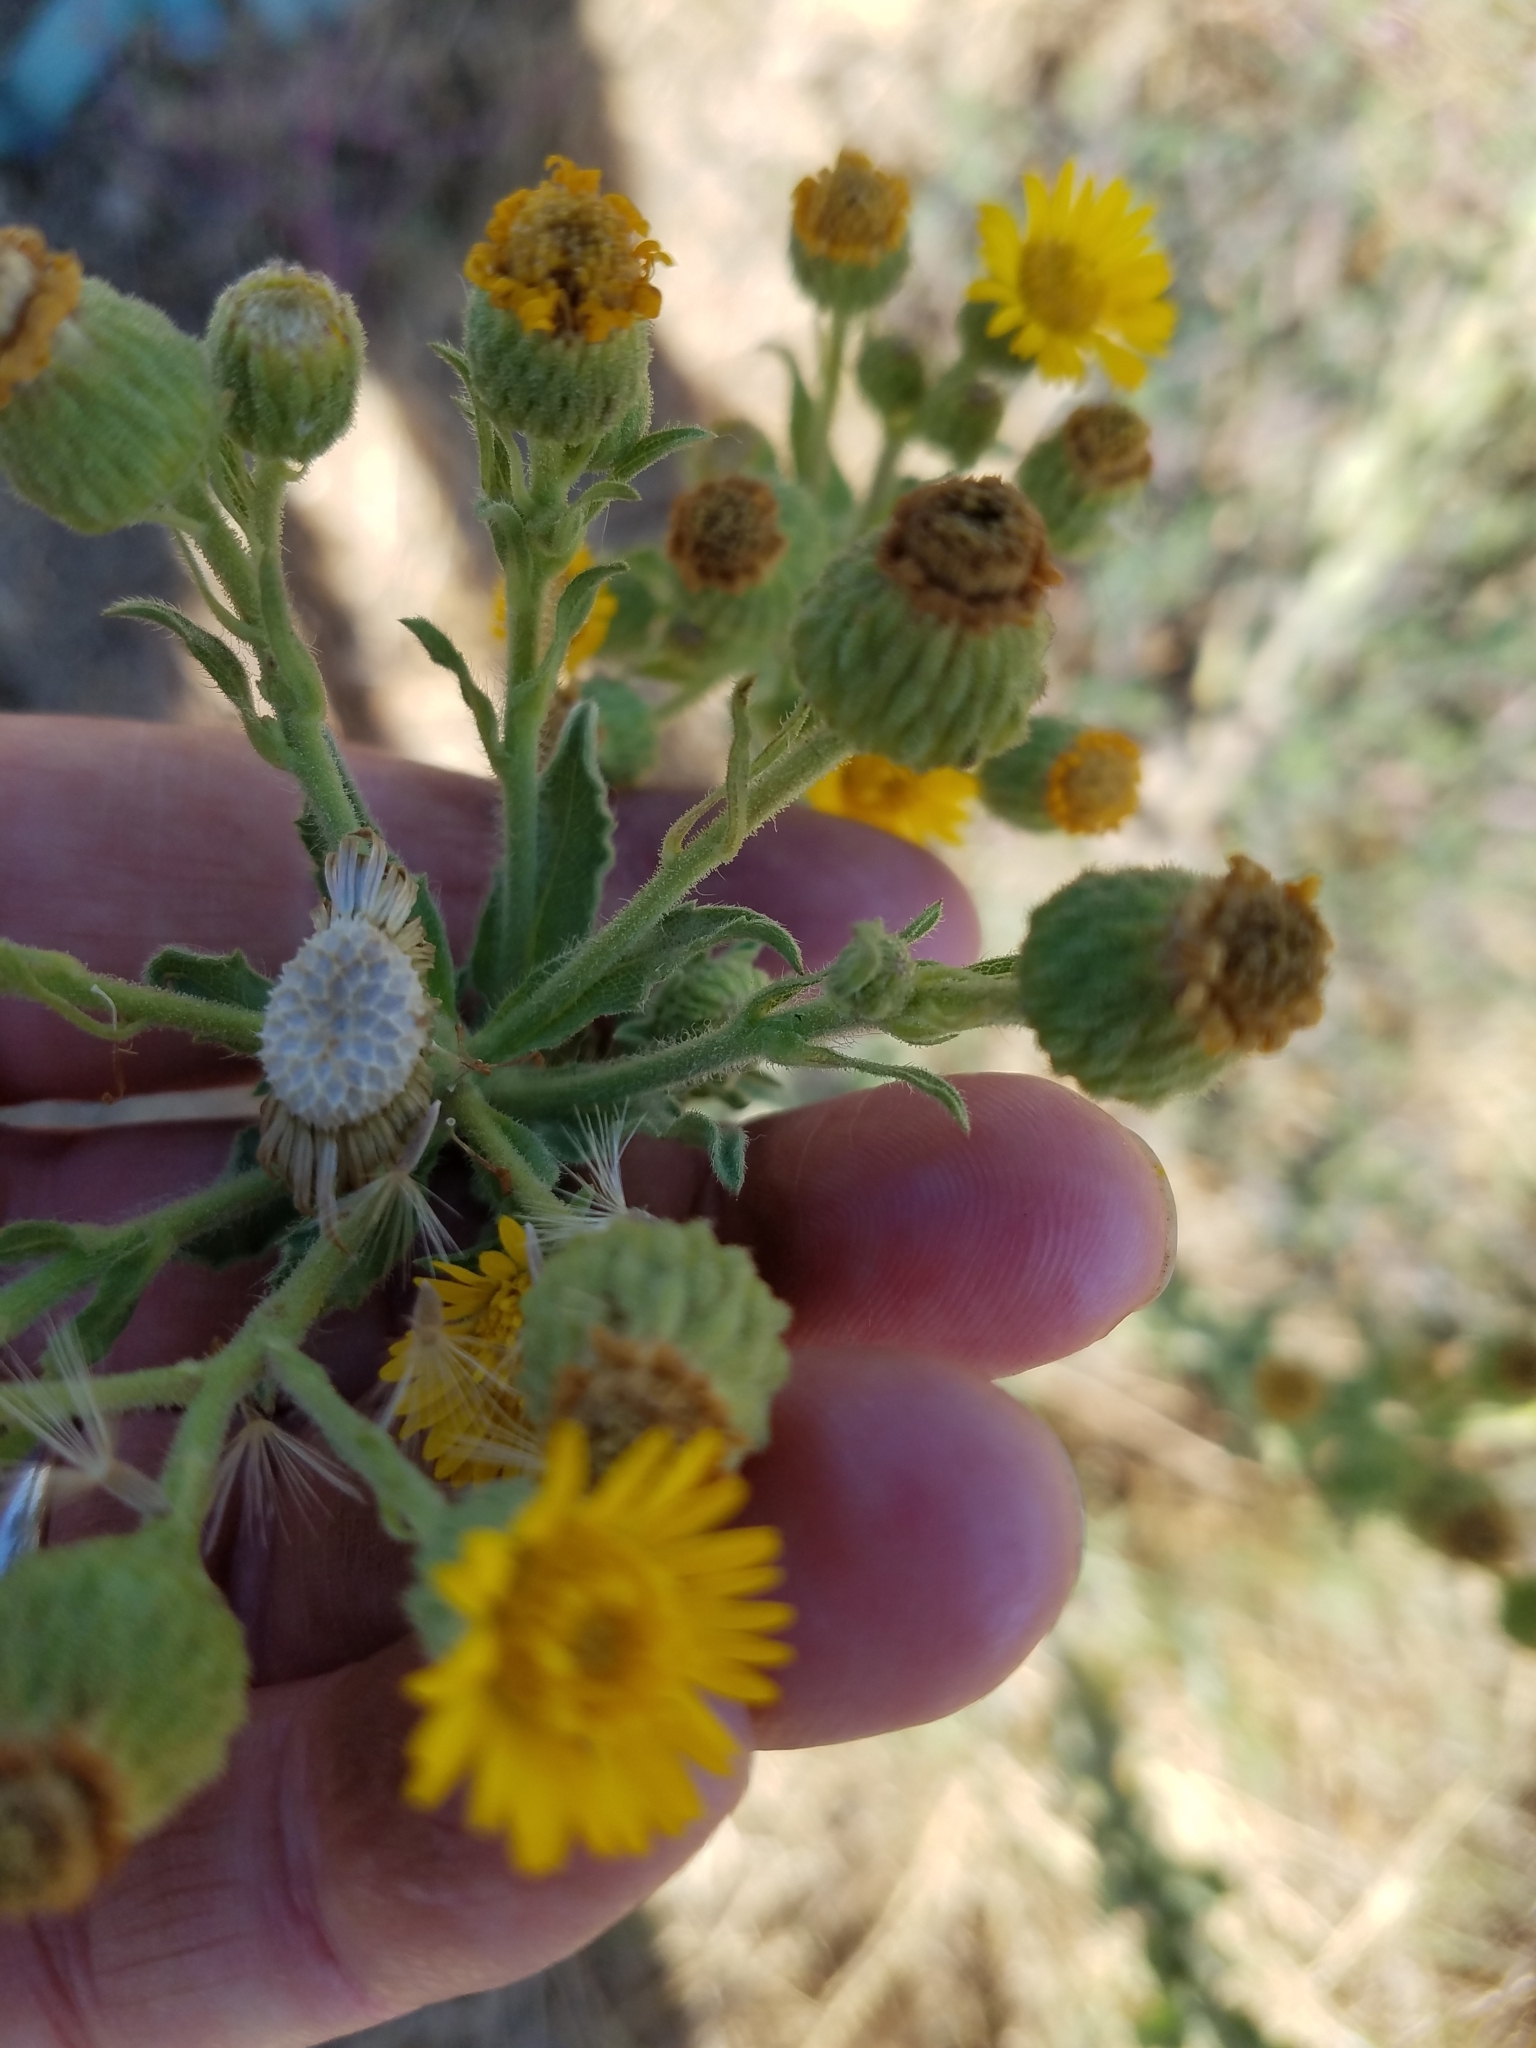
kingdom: Plantae
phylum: Tracheophyta
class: Magnoliopsida
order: Asterales
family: Asteraceae
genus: Heterotheca
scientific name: Heterotheca grandiflora
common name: Telegraphweed
